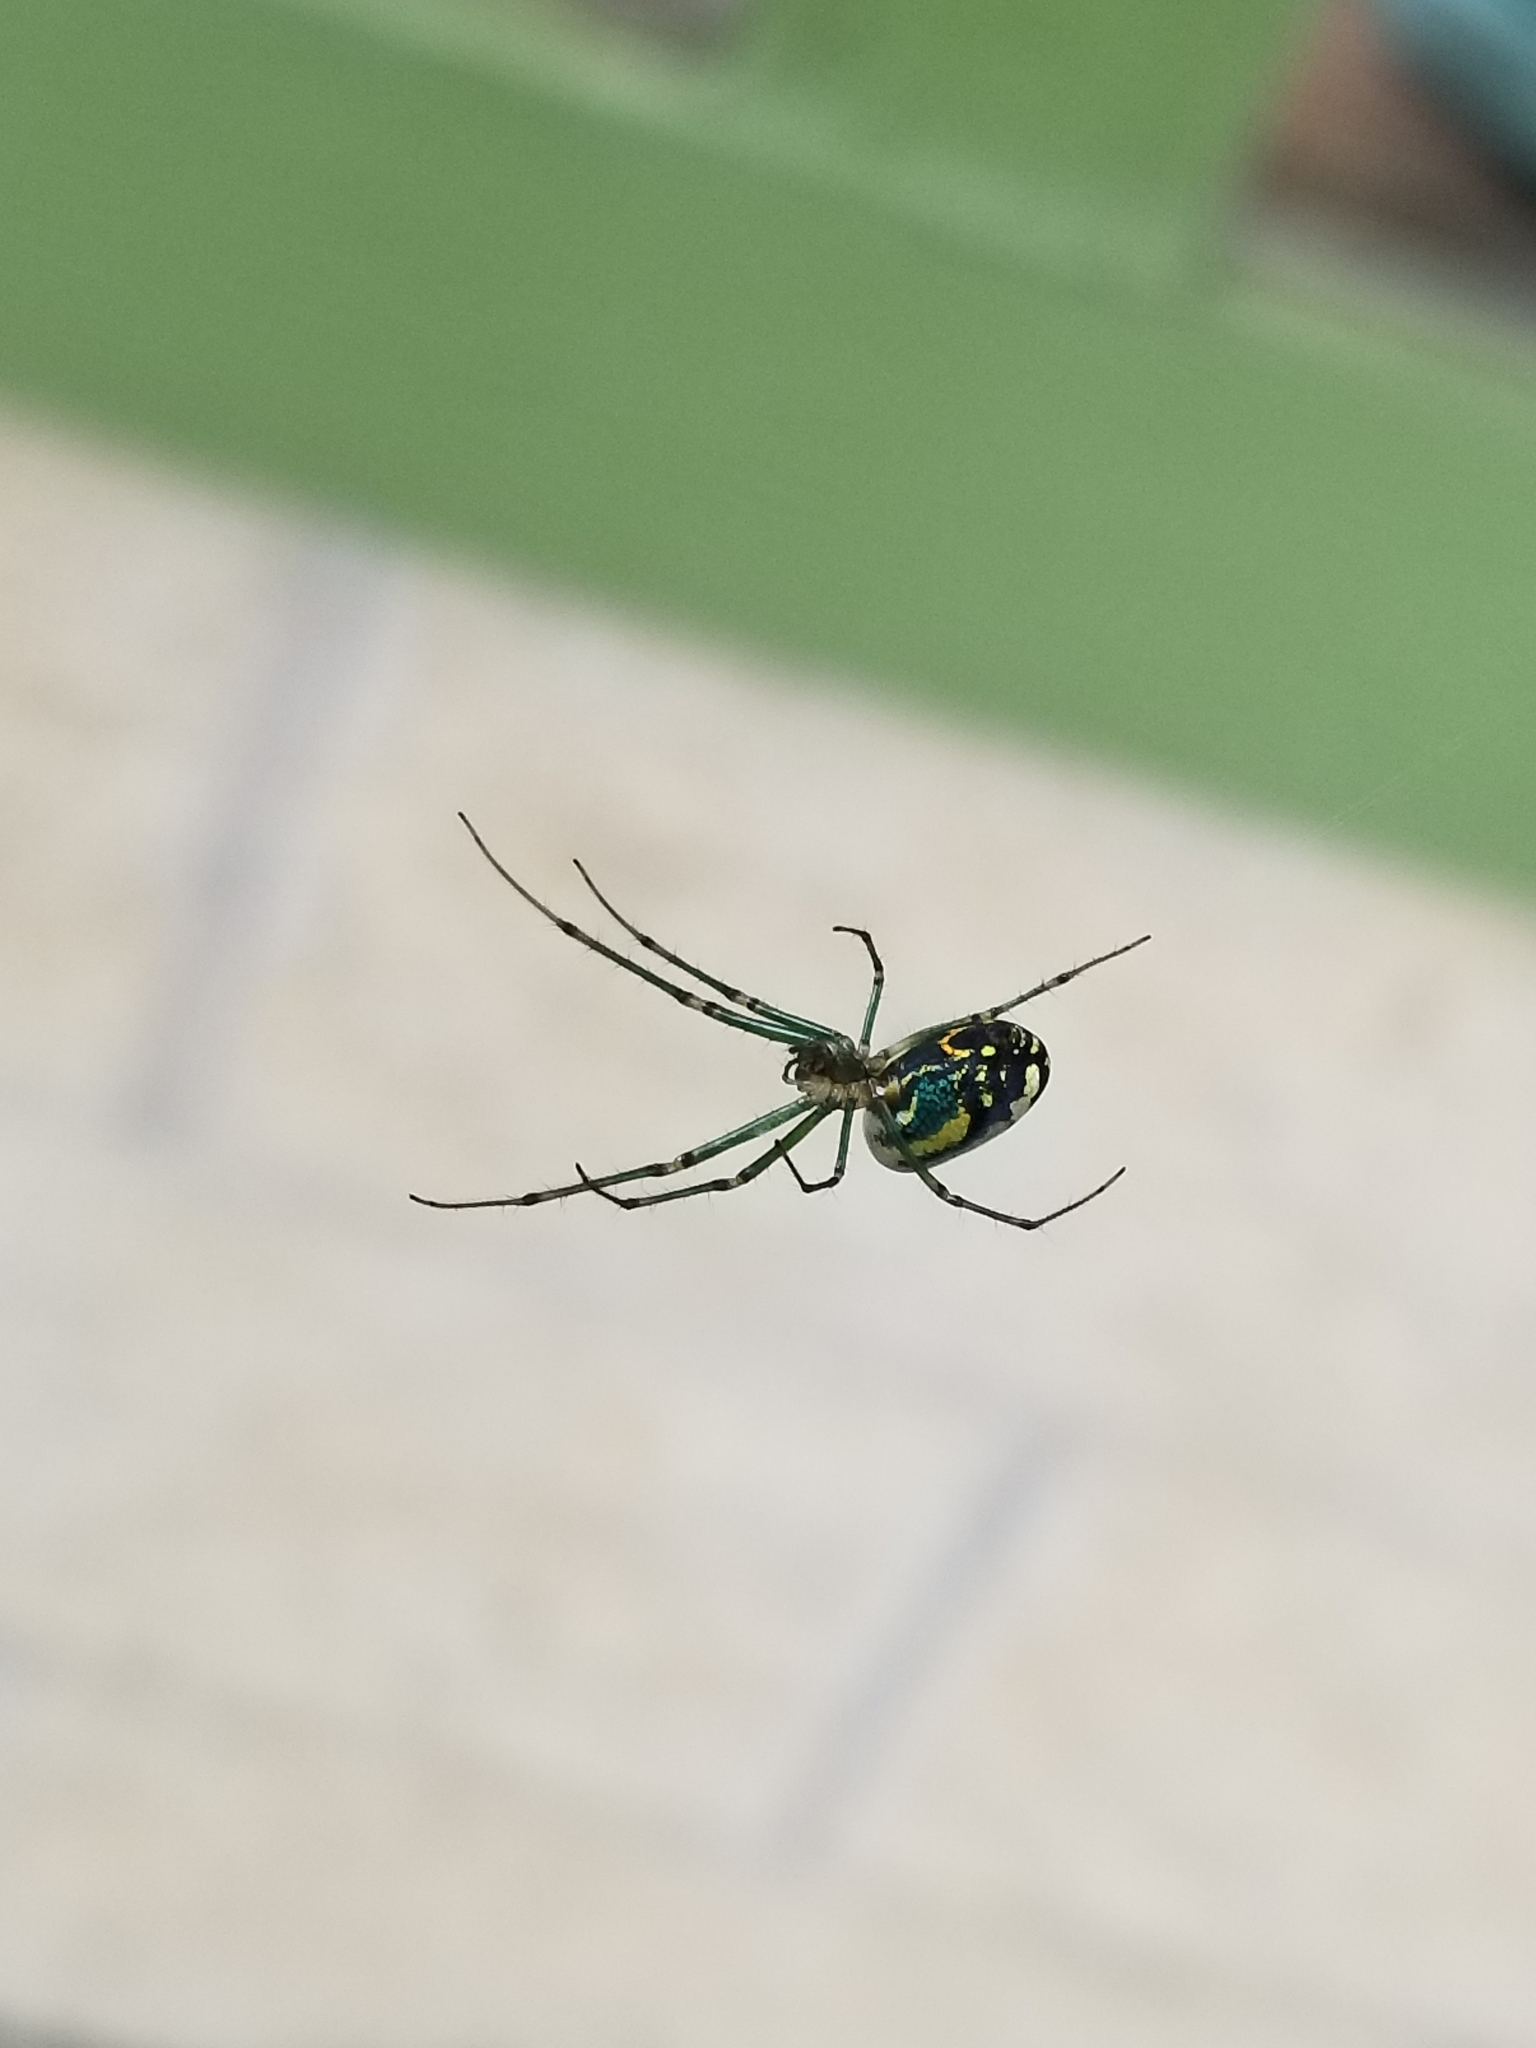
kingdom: Animalia
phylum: Arthropoda
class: Arachnida
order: Araneae
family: Tetragnathidae
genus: Leucauge
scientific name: Leucauge venusta
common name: Longjawed orb weavers
